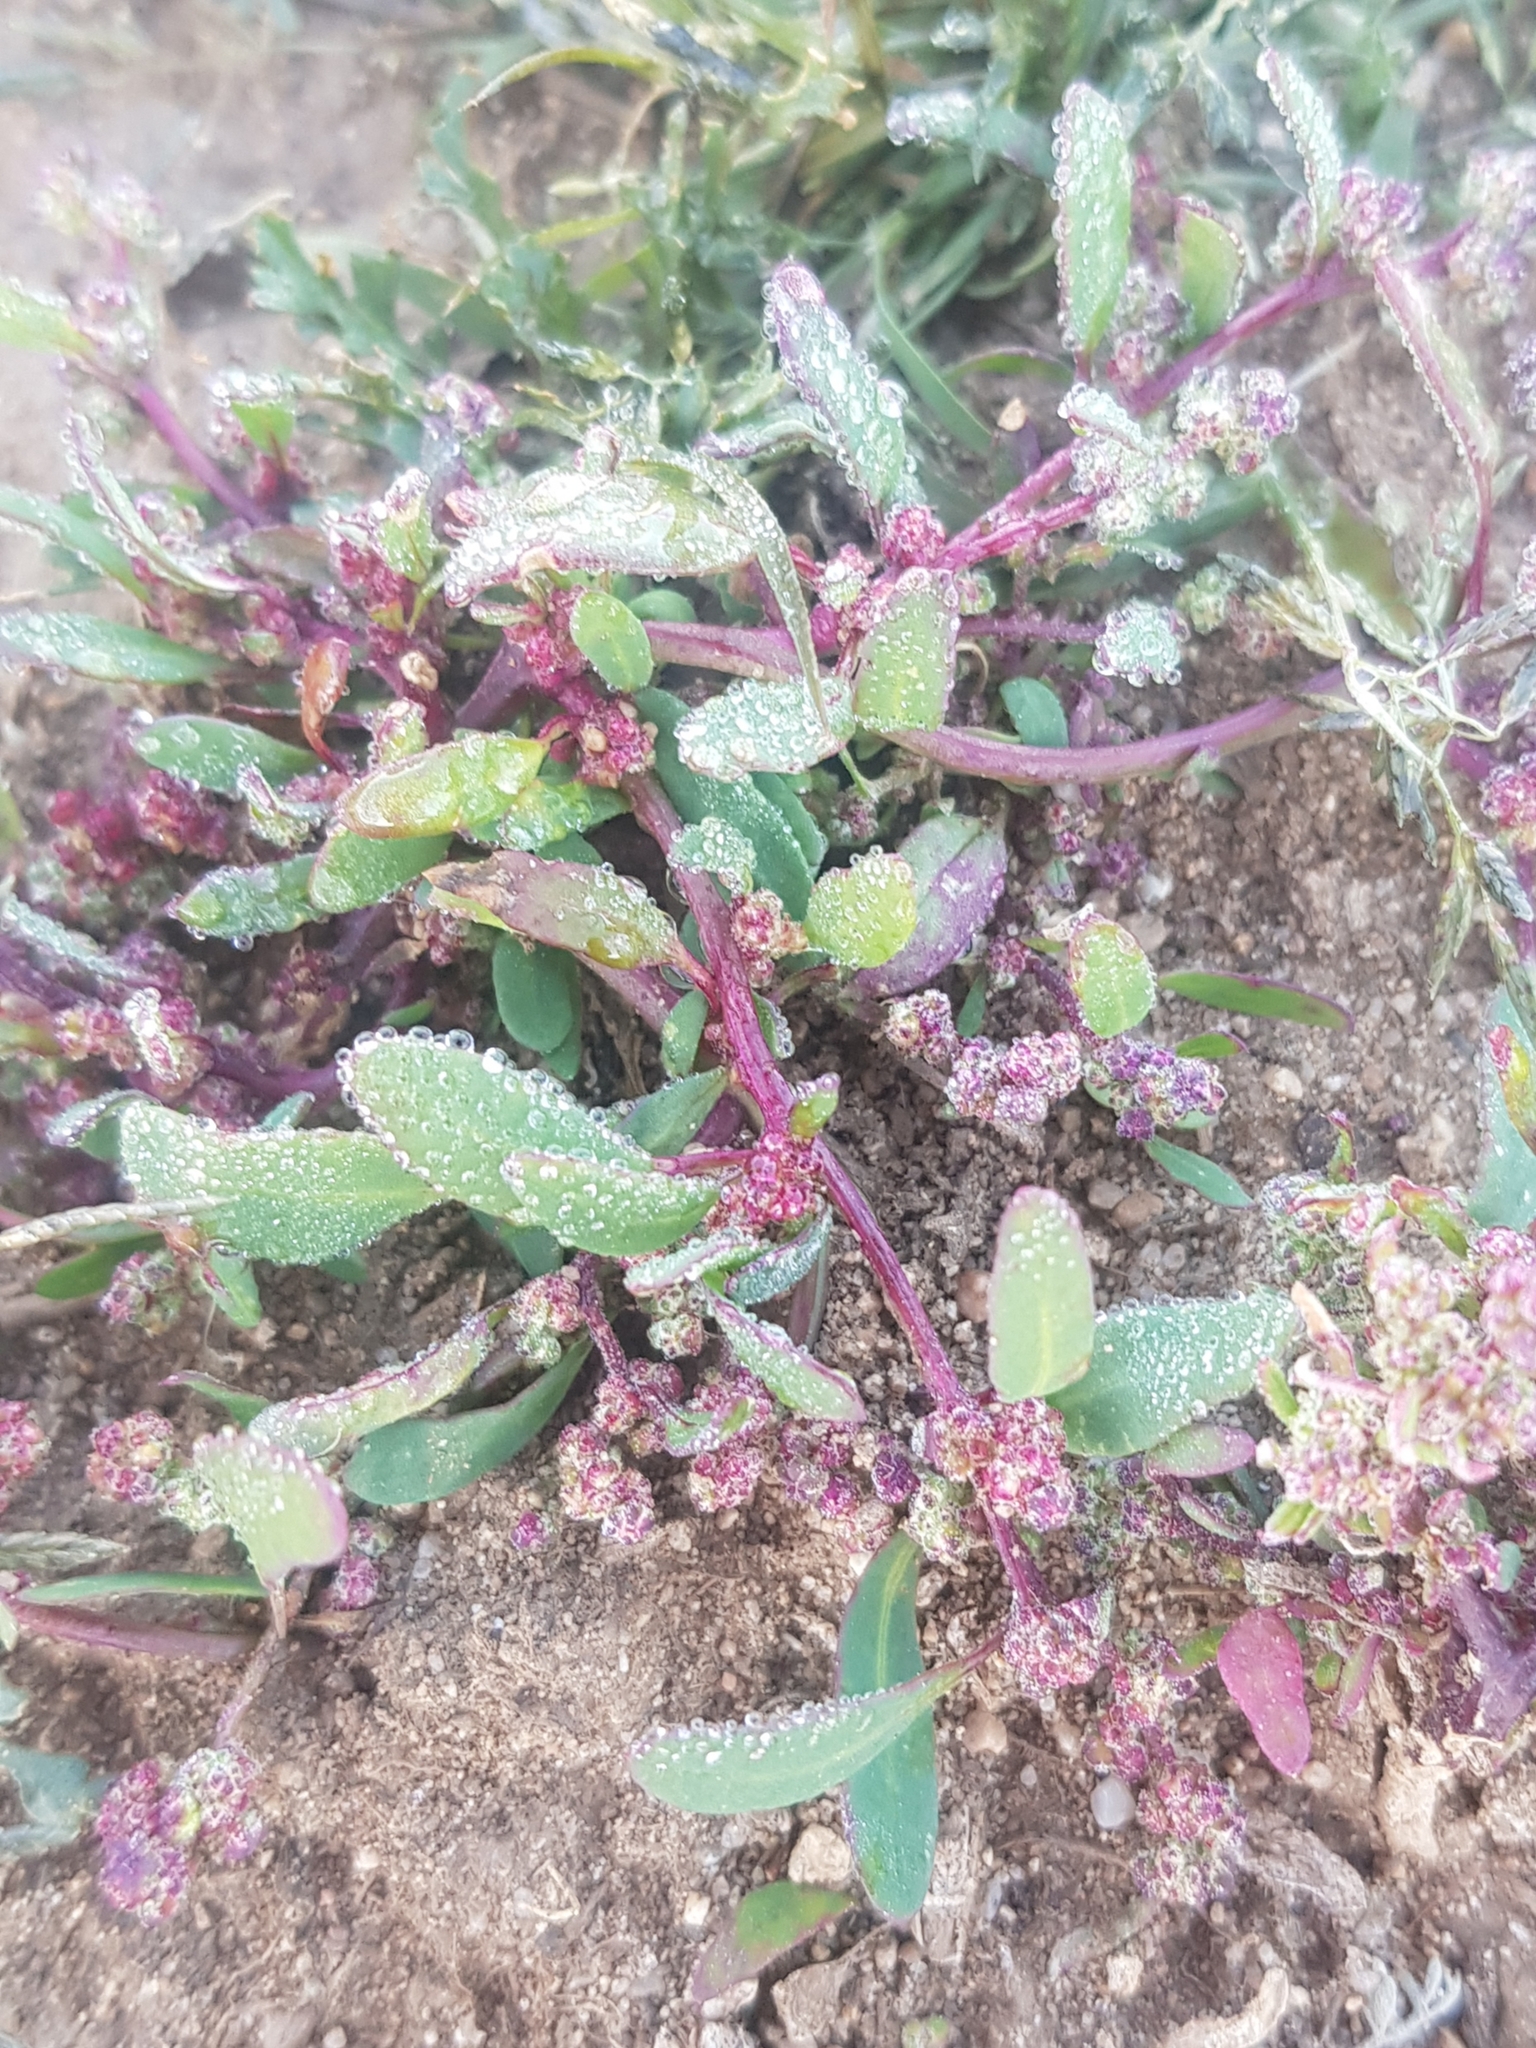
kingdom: Plantae
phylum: Tracheophyta
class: Magnoliopsida
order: Caryophyllales
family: Amaranthaceae
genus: Chenopodium
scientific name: Chenopodium album
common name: Fat-hen
